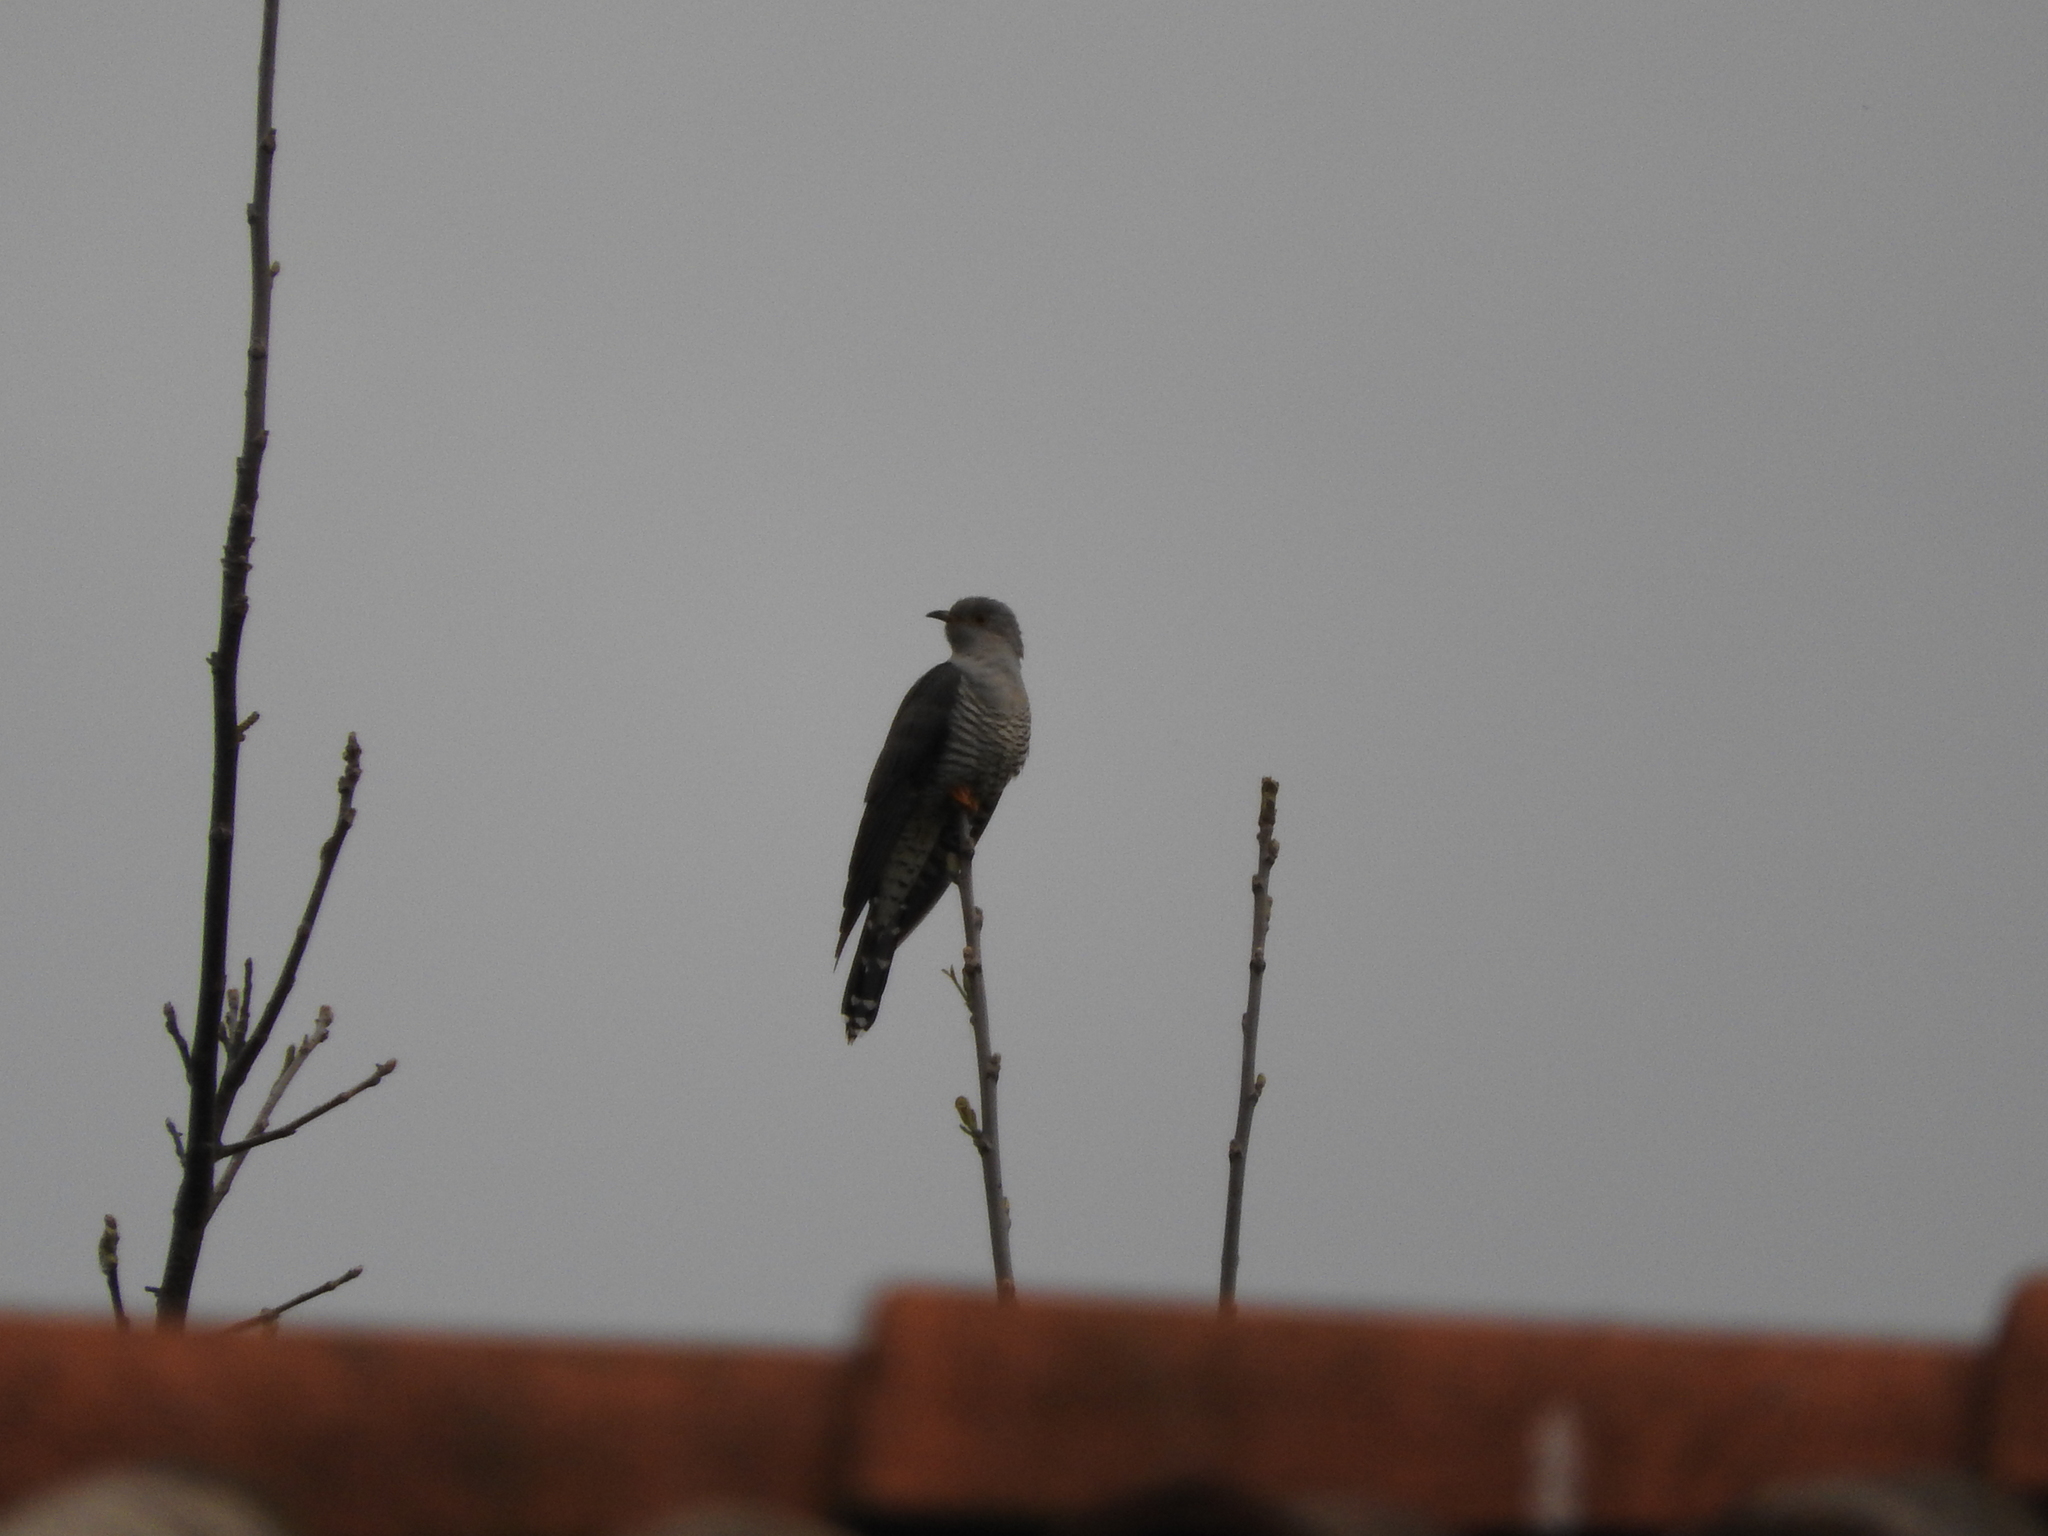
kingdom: Animalia
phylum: Chordata
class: Aves
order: Cuculiformes
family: Cuculidae
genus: Cuculus
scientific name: Cuculus canorus
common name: Common cuckoo
